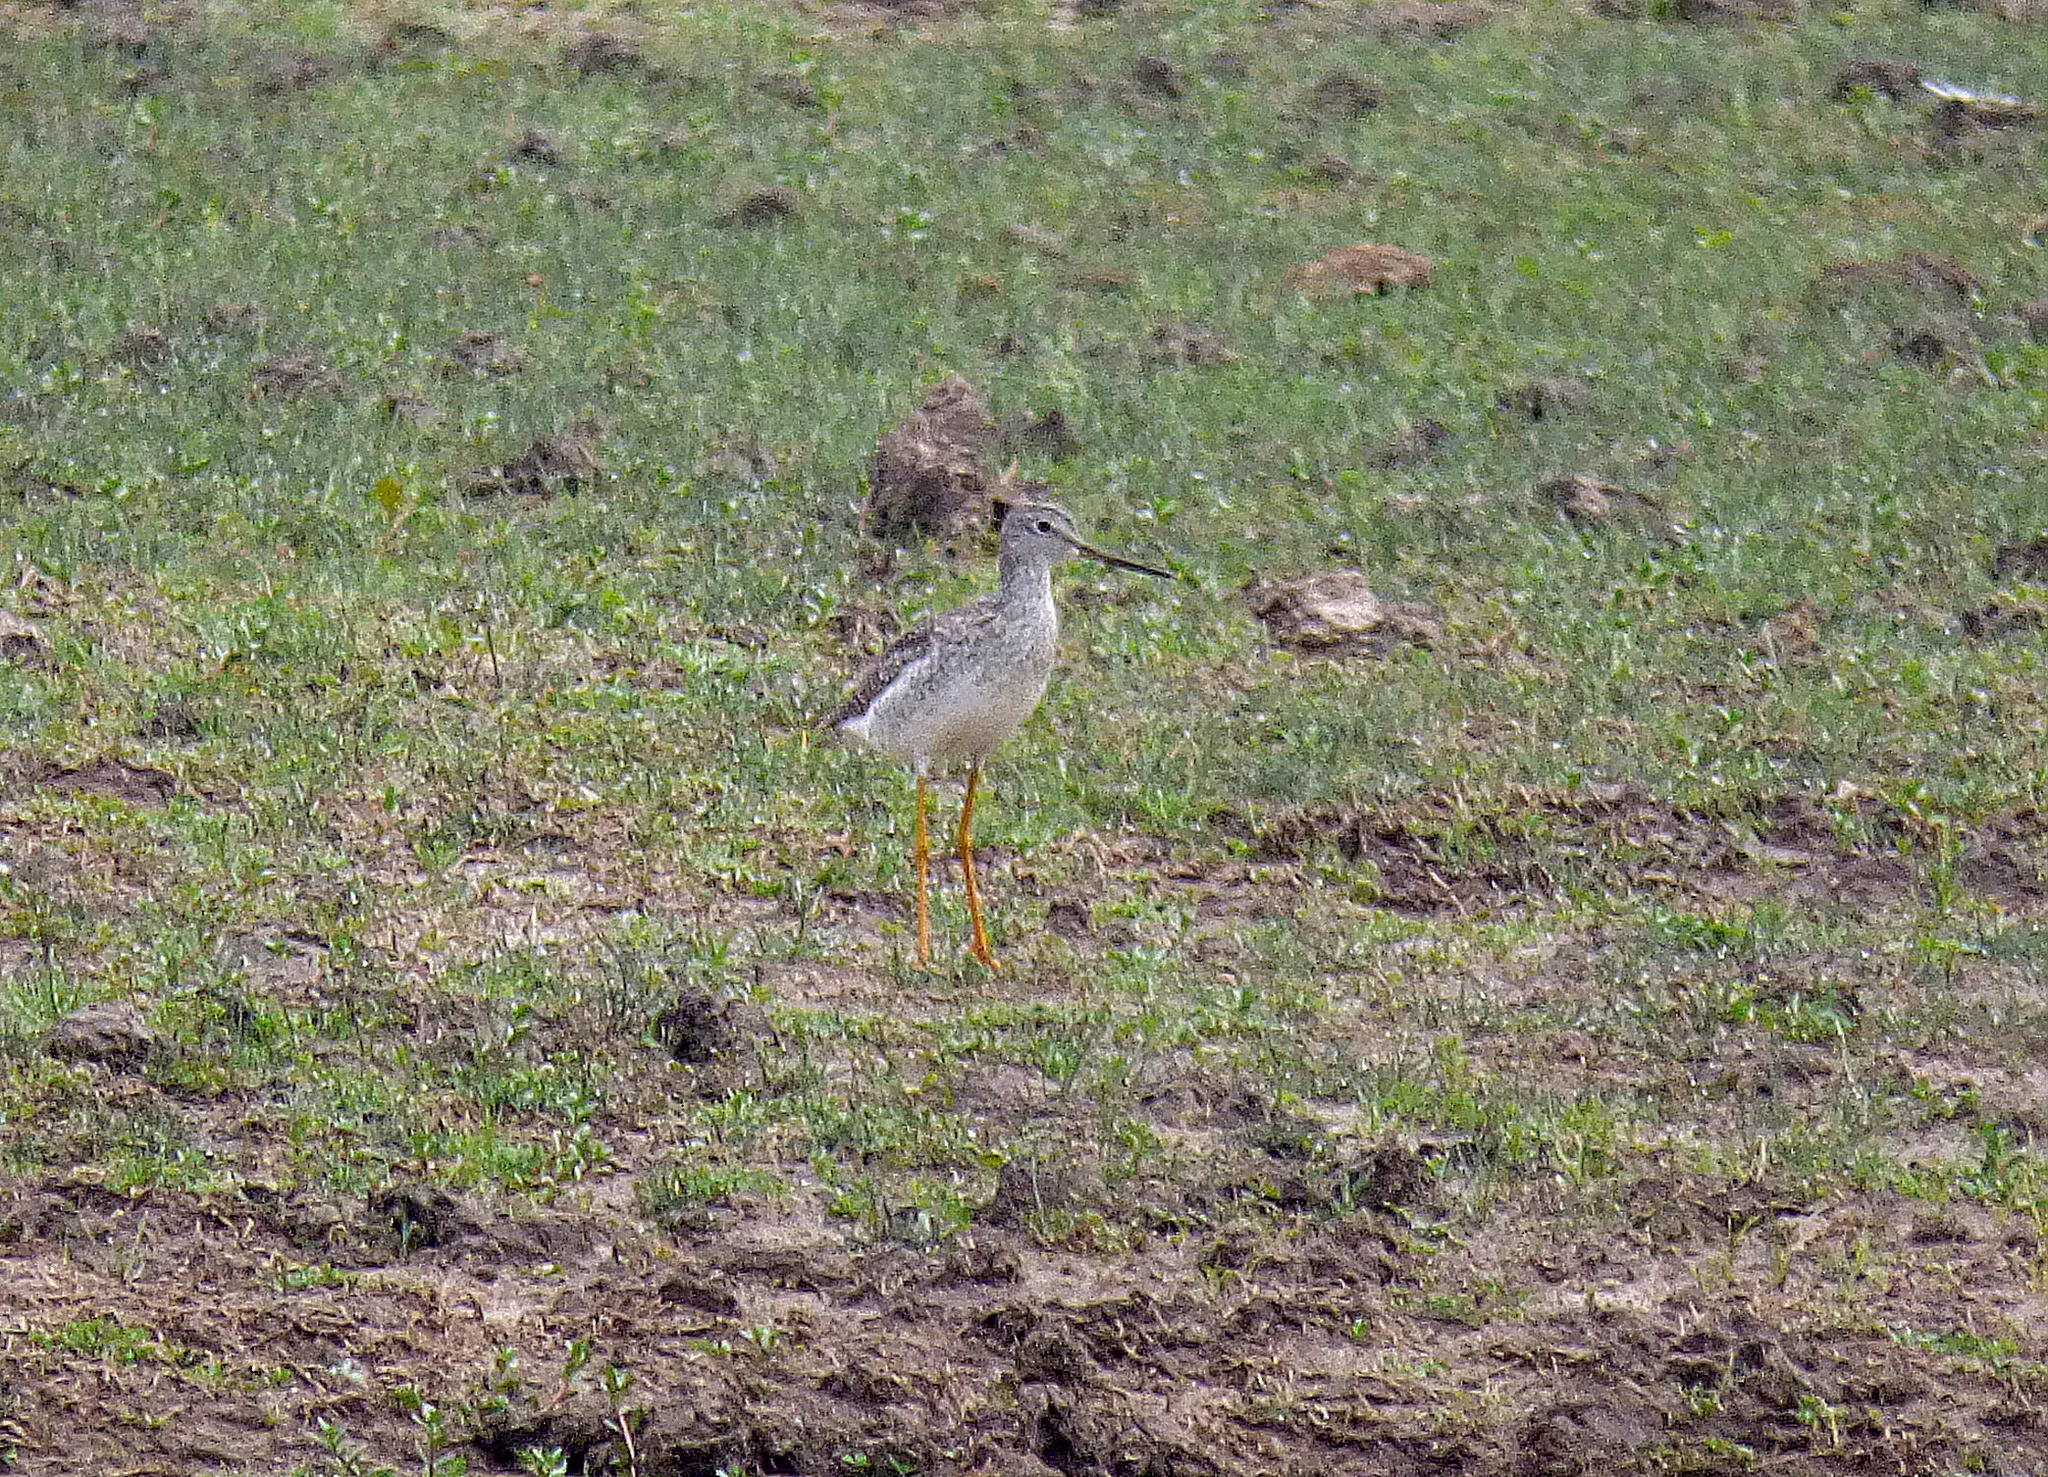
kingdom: Animalia
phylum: Chordata
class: Aves
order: Charadriiformes
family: Scolopacidae
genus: Tringa
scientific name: Tringa melanoleuca
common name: Greater yellowlegs
